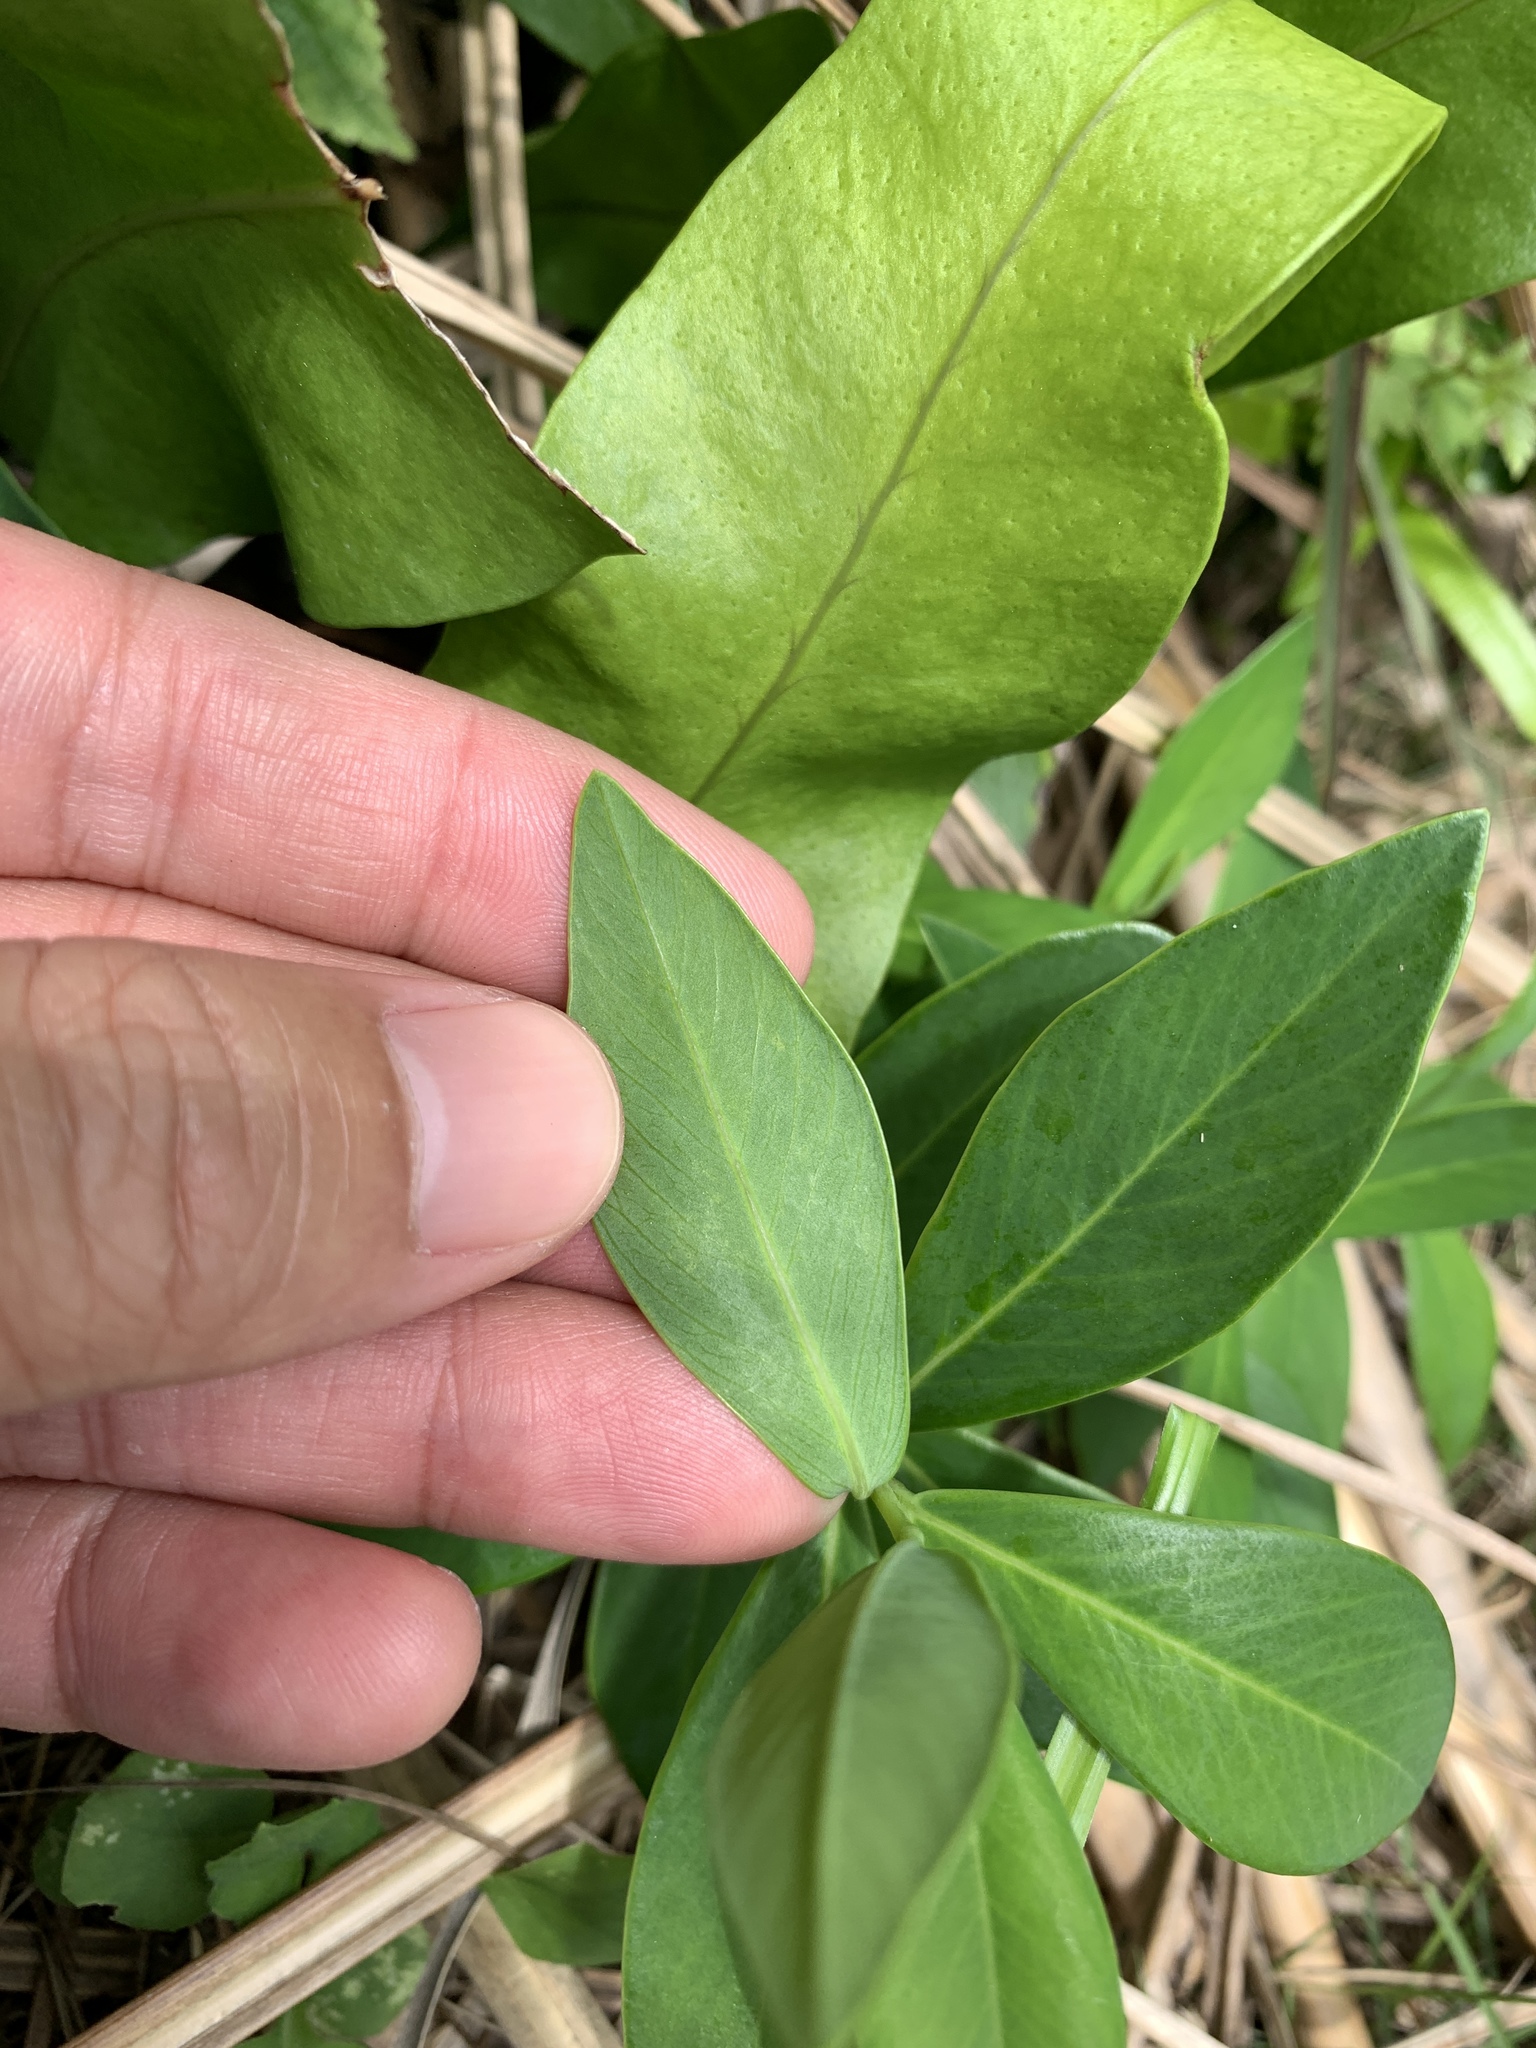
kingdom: Plantae
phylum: Tracheophyta
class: Magnoliopsida
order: Malvales
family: Thymelaeaceae
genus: Wikstroemia
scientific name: Wikstroemia indica
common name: Tiebush
